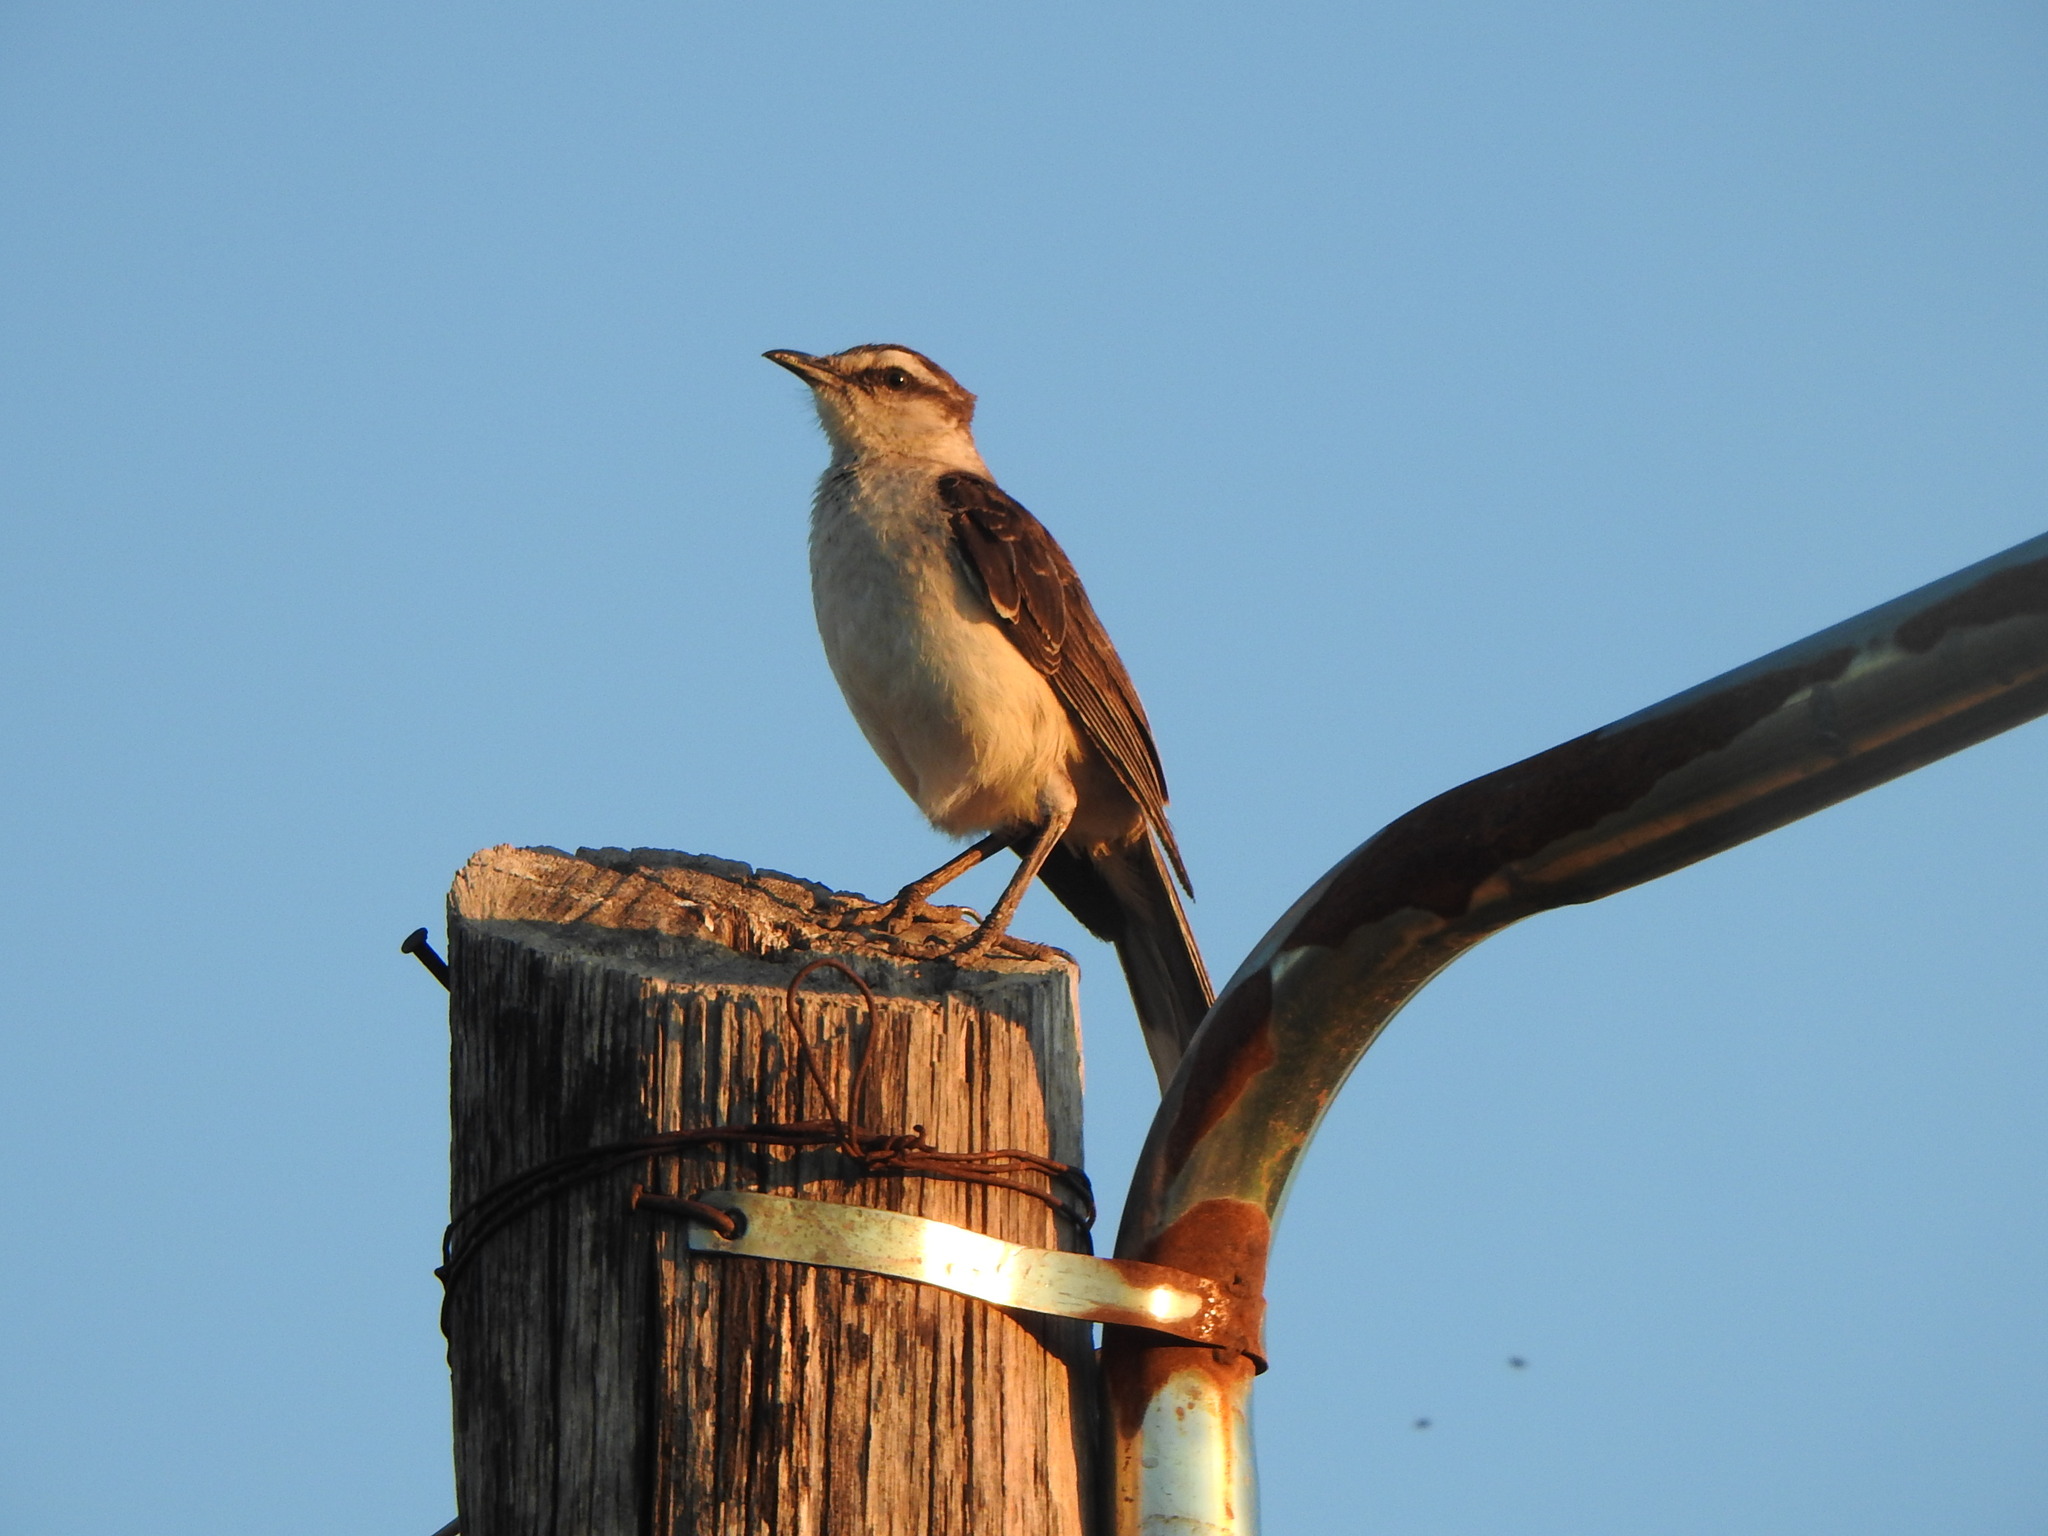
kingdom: Animalia
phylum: Chordata
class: Aves
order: Passeriformes
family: Mimidae
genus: Mimus
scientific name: Mimus saturninus
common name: Chalk-browed mockingbird
